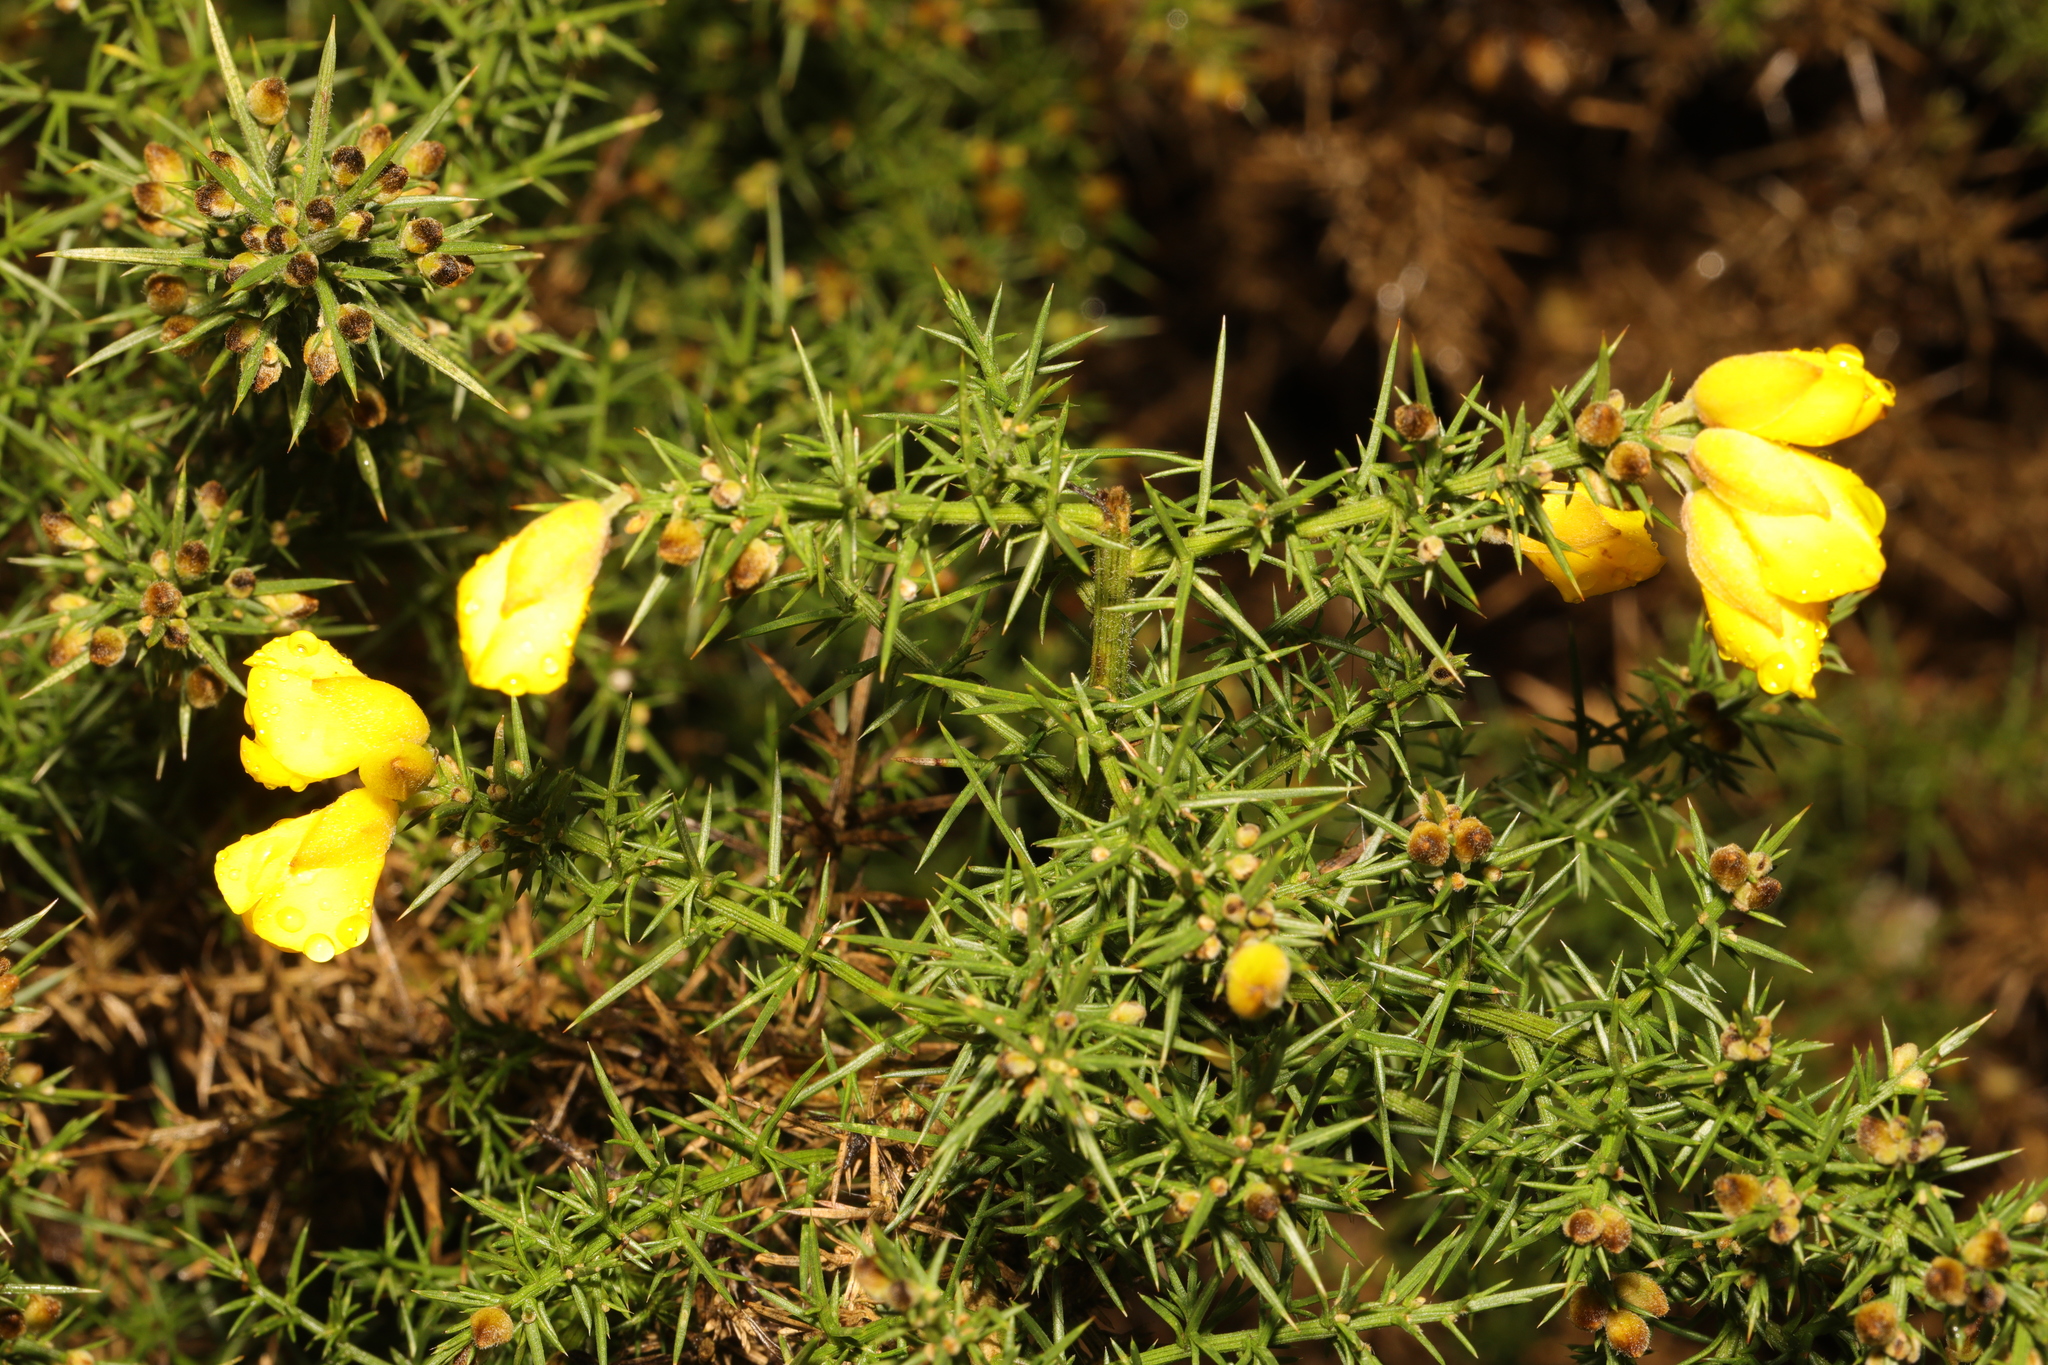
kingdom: Plantae
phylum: Tracheophyta
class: Magnoliopsida
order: Fabales
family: Fabaceae
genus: Ulex
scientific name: Ulex europaeus
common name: Common gorse
